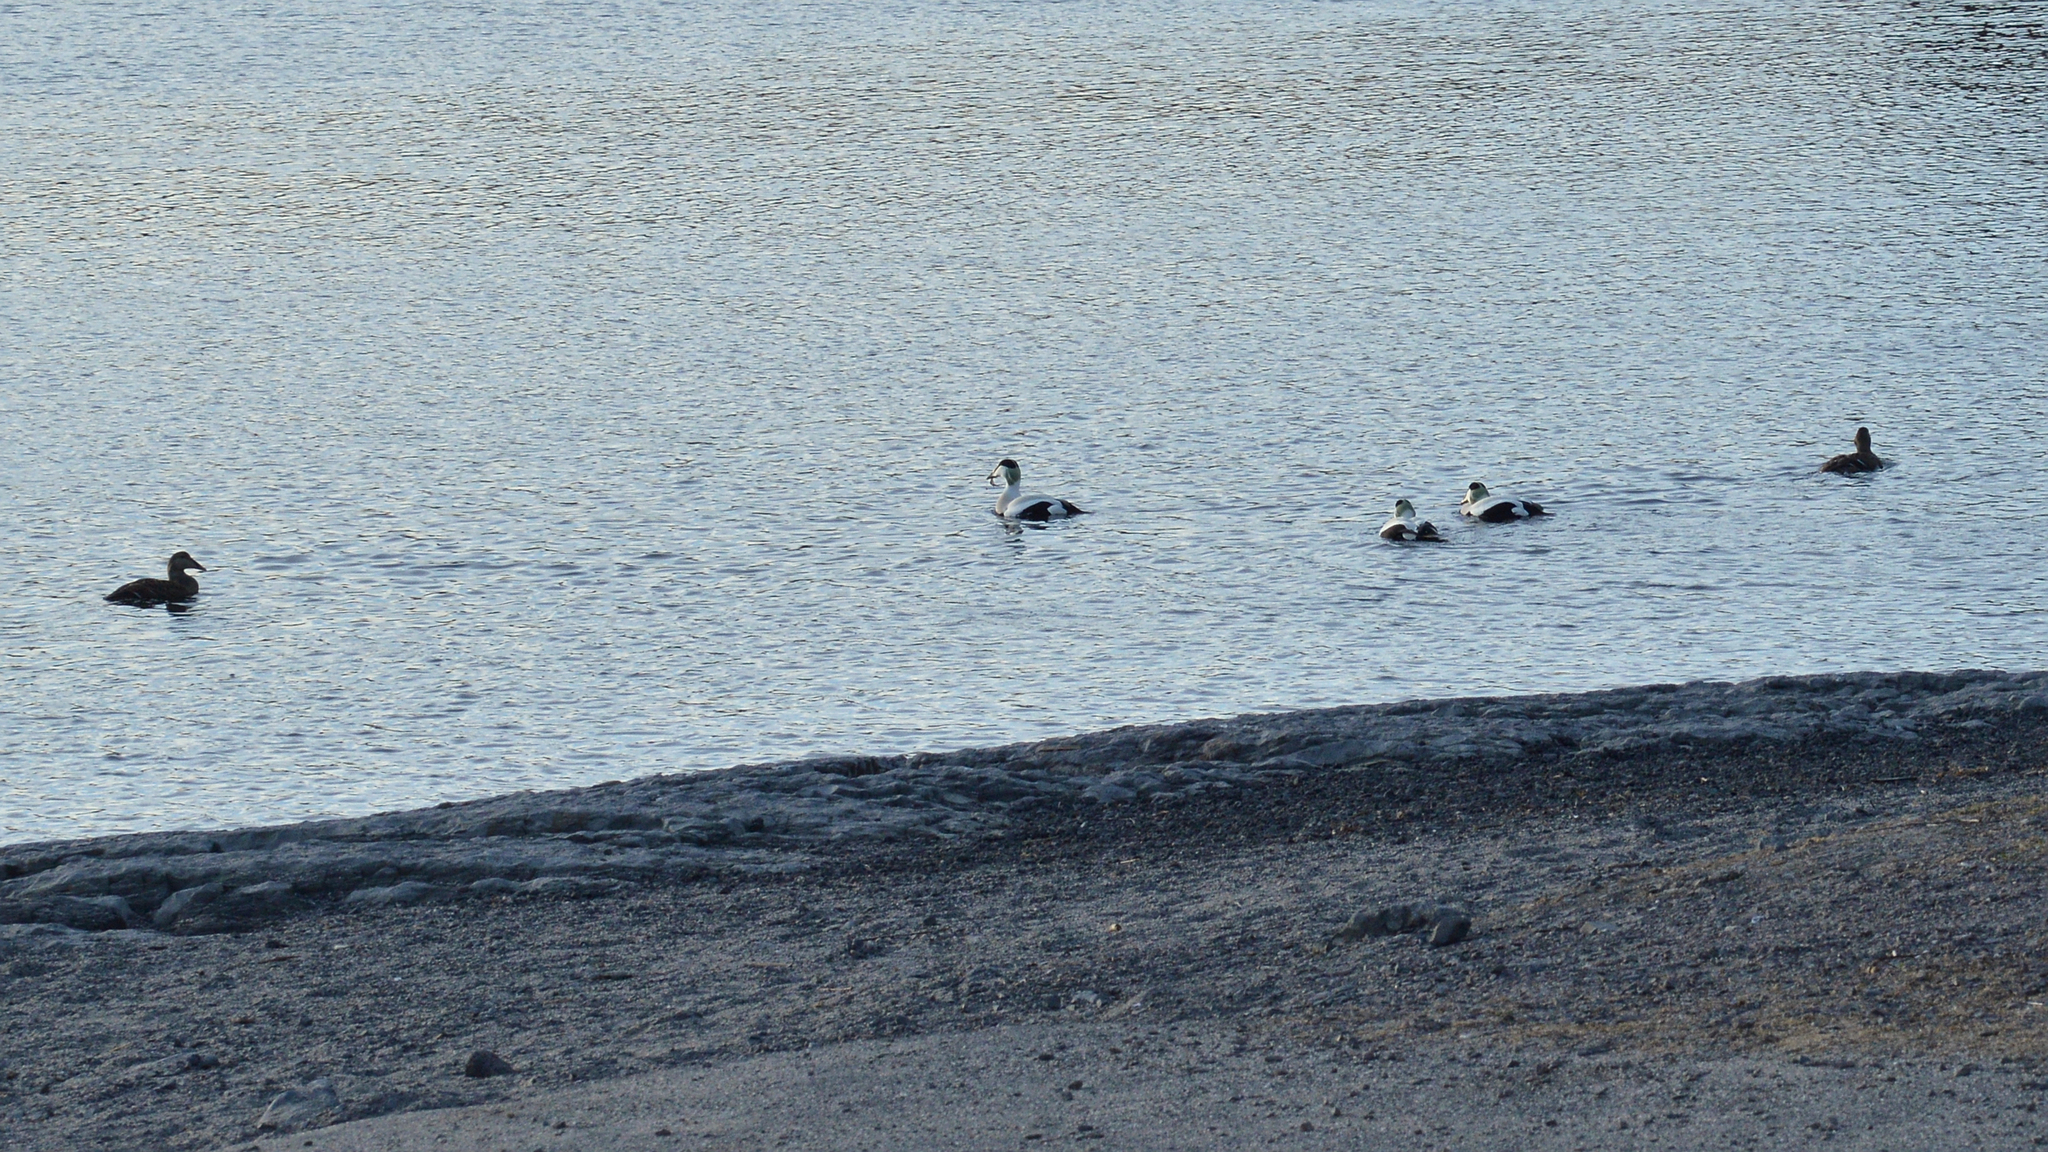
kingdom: Animalia
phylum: Chordata
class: Aves
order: Anseriformes
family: Anatidae
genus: Somateria
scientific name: Somateria mollissima
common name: Common eider
